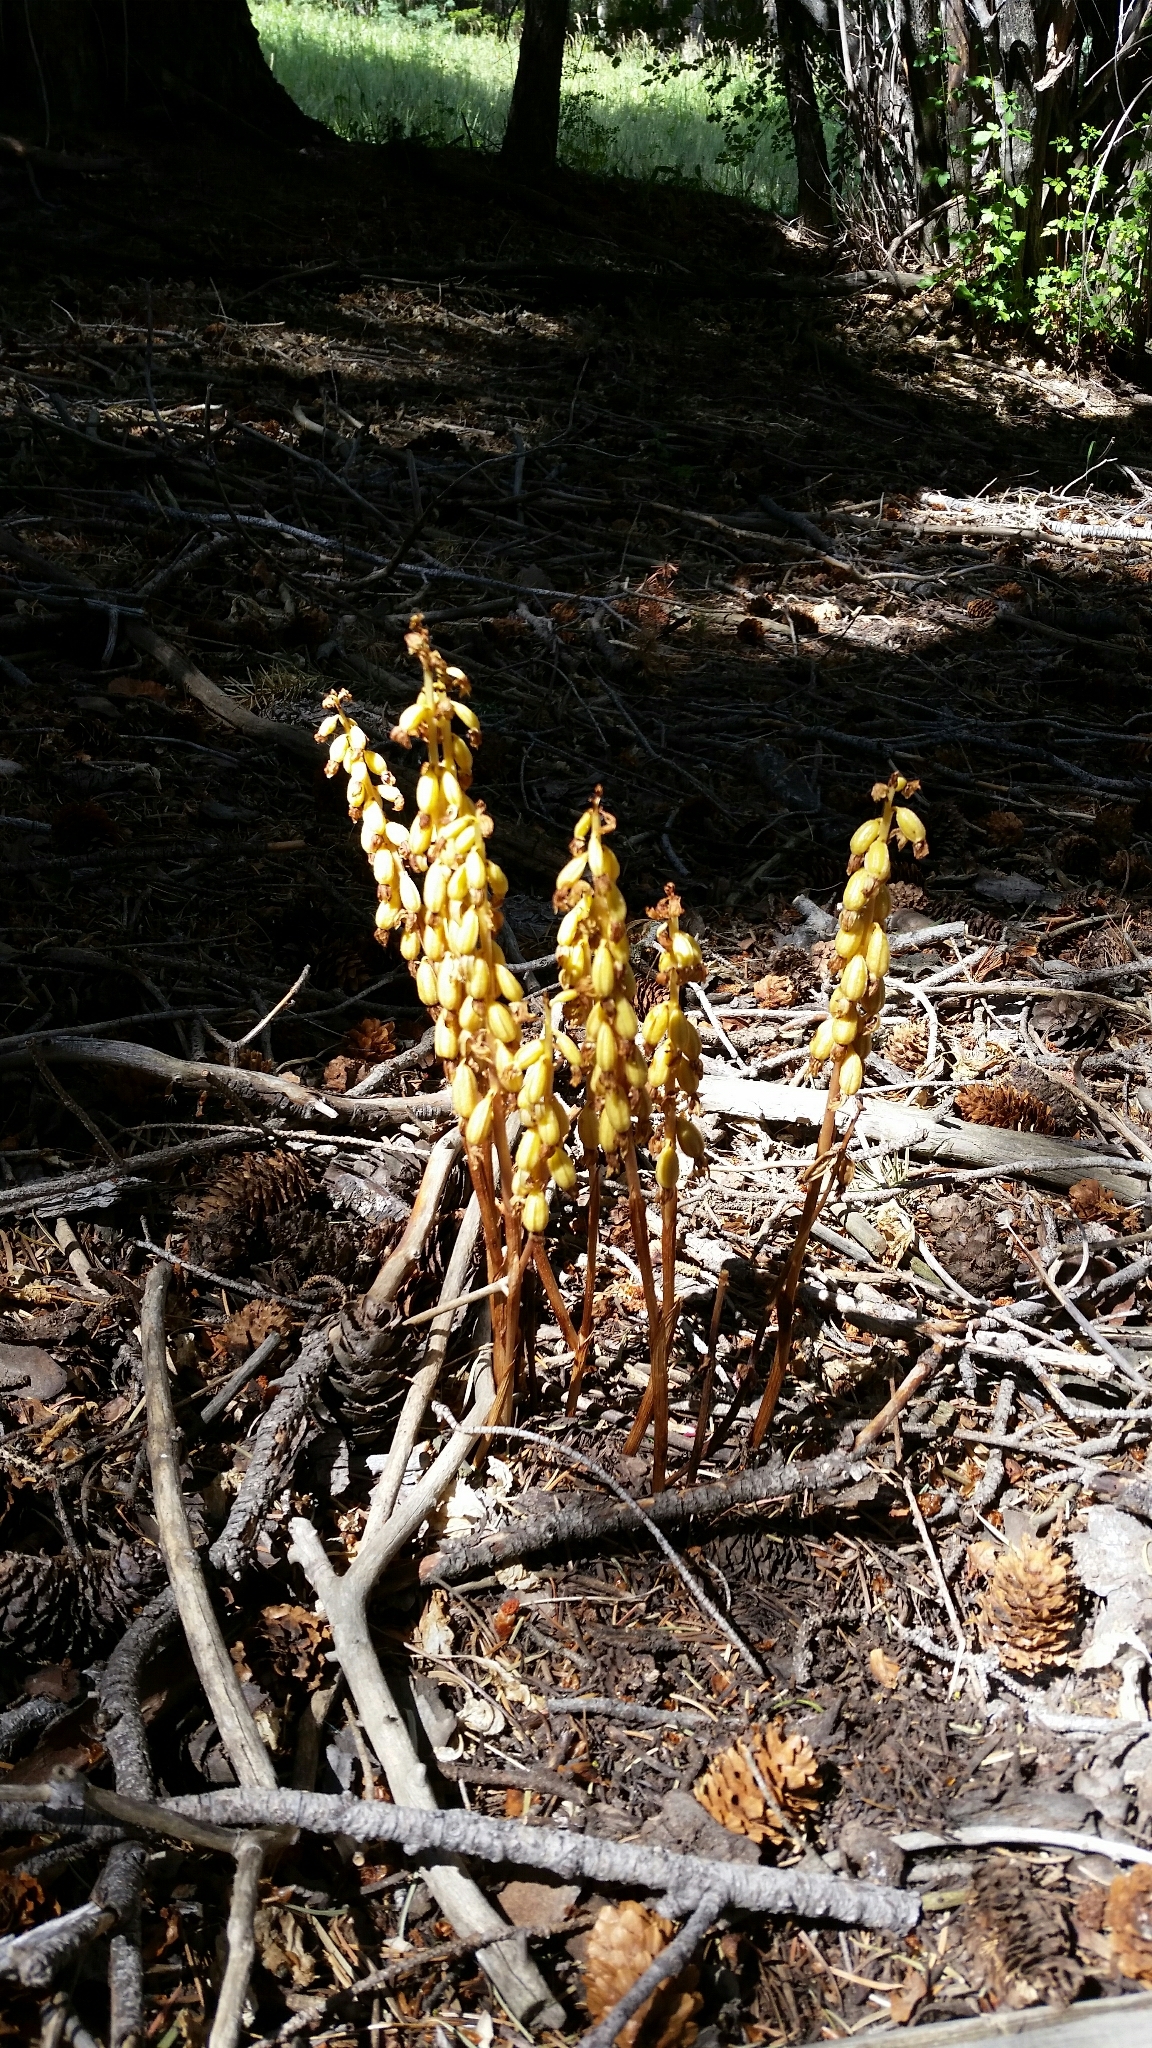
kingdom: Plantae
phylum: Tracheophyta
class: Liliopsida
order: Asparagales
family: Orchidaceae
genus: Corallorhiza
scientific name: Corallorhiza striata
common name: Hooded coralroot
